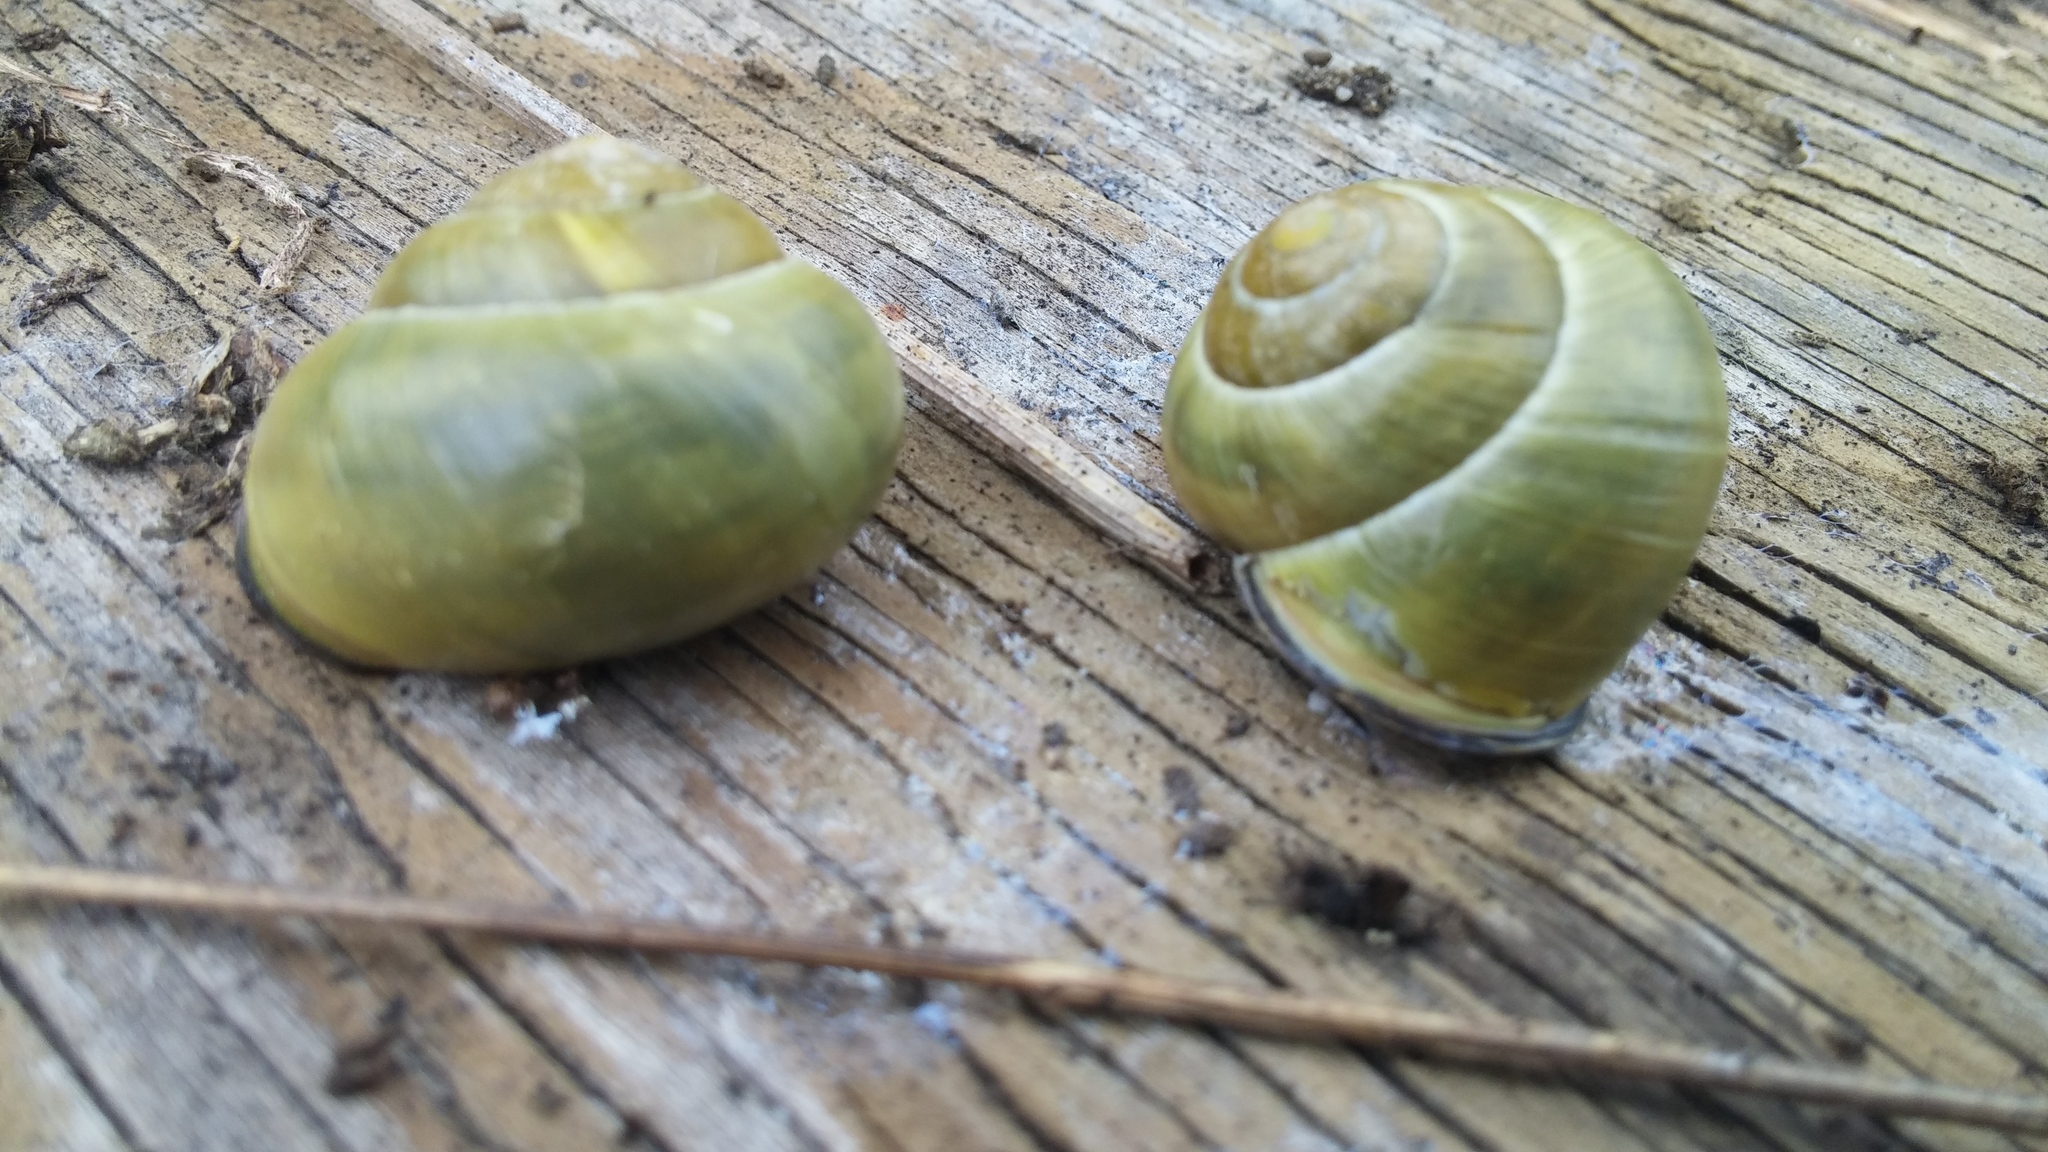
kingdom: Animalia
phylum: Mollusca
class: Gastropoda
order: Stylommatophora
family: Helicidae
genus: Cepaea
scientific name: Cepaea nemoralis
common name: Grovesnail
